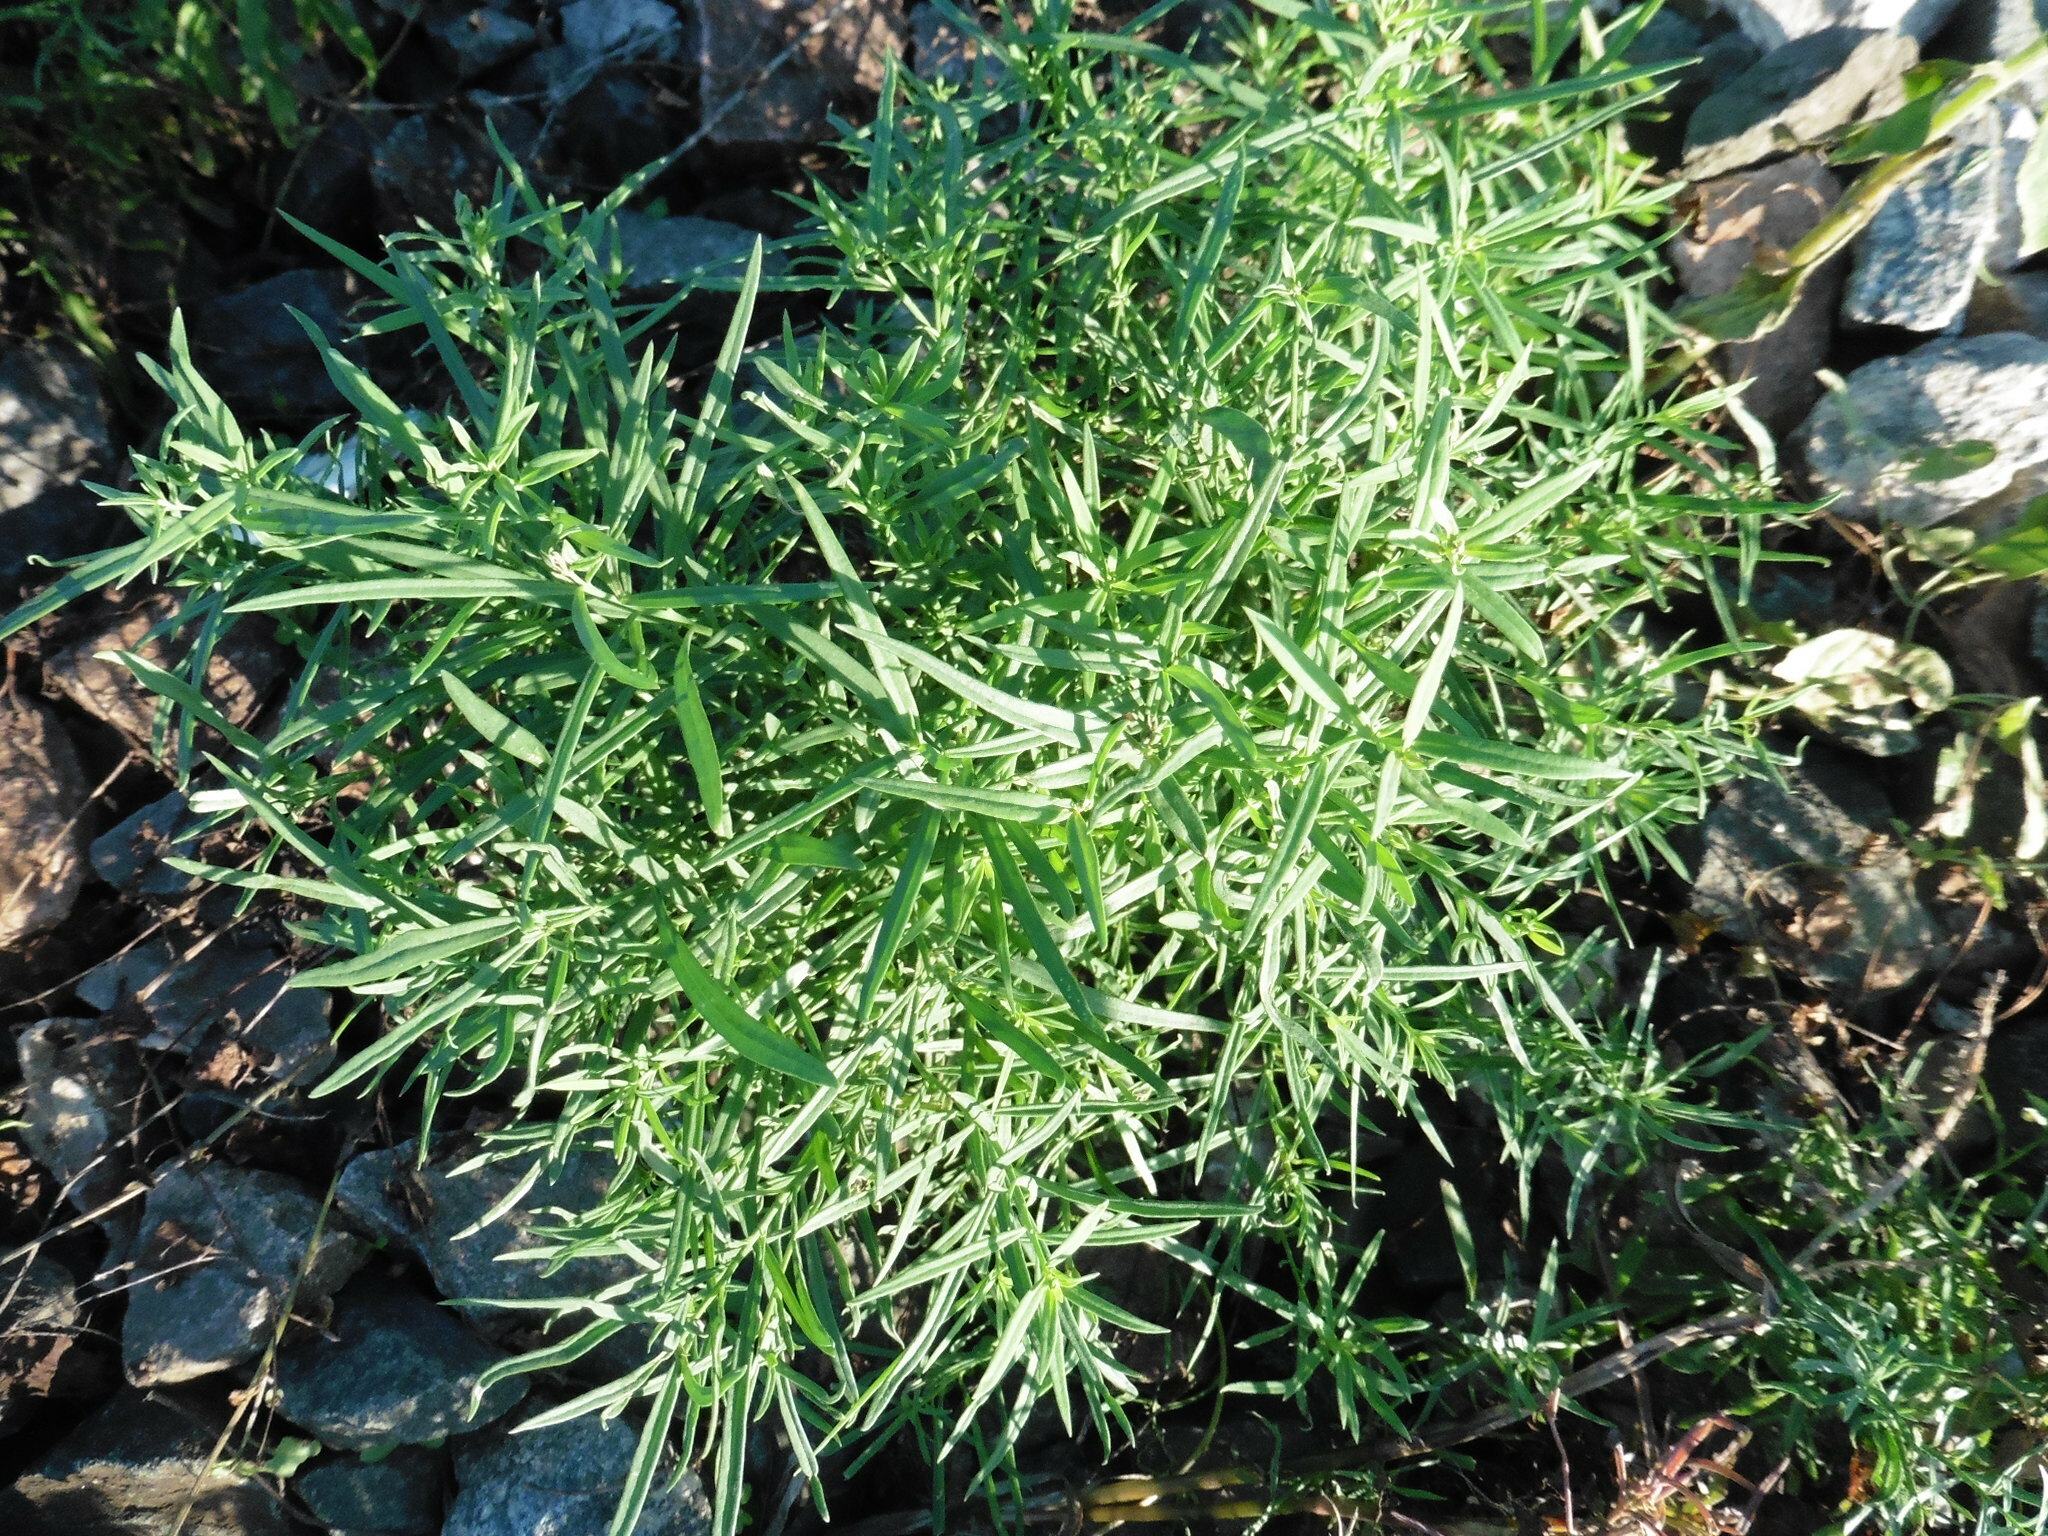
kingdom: Plantae
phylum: Tracheophyta
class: Magnoliopsida
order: Lamiales
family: Plantaginaceae
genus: Linaria
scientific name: Linaria vulgaris
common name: Butter and eggs
